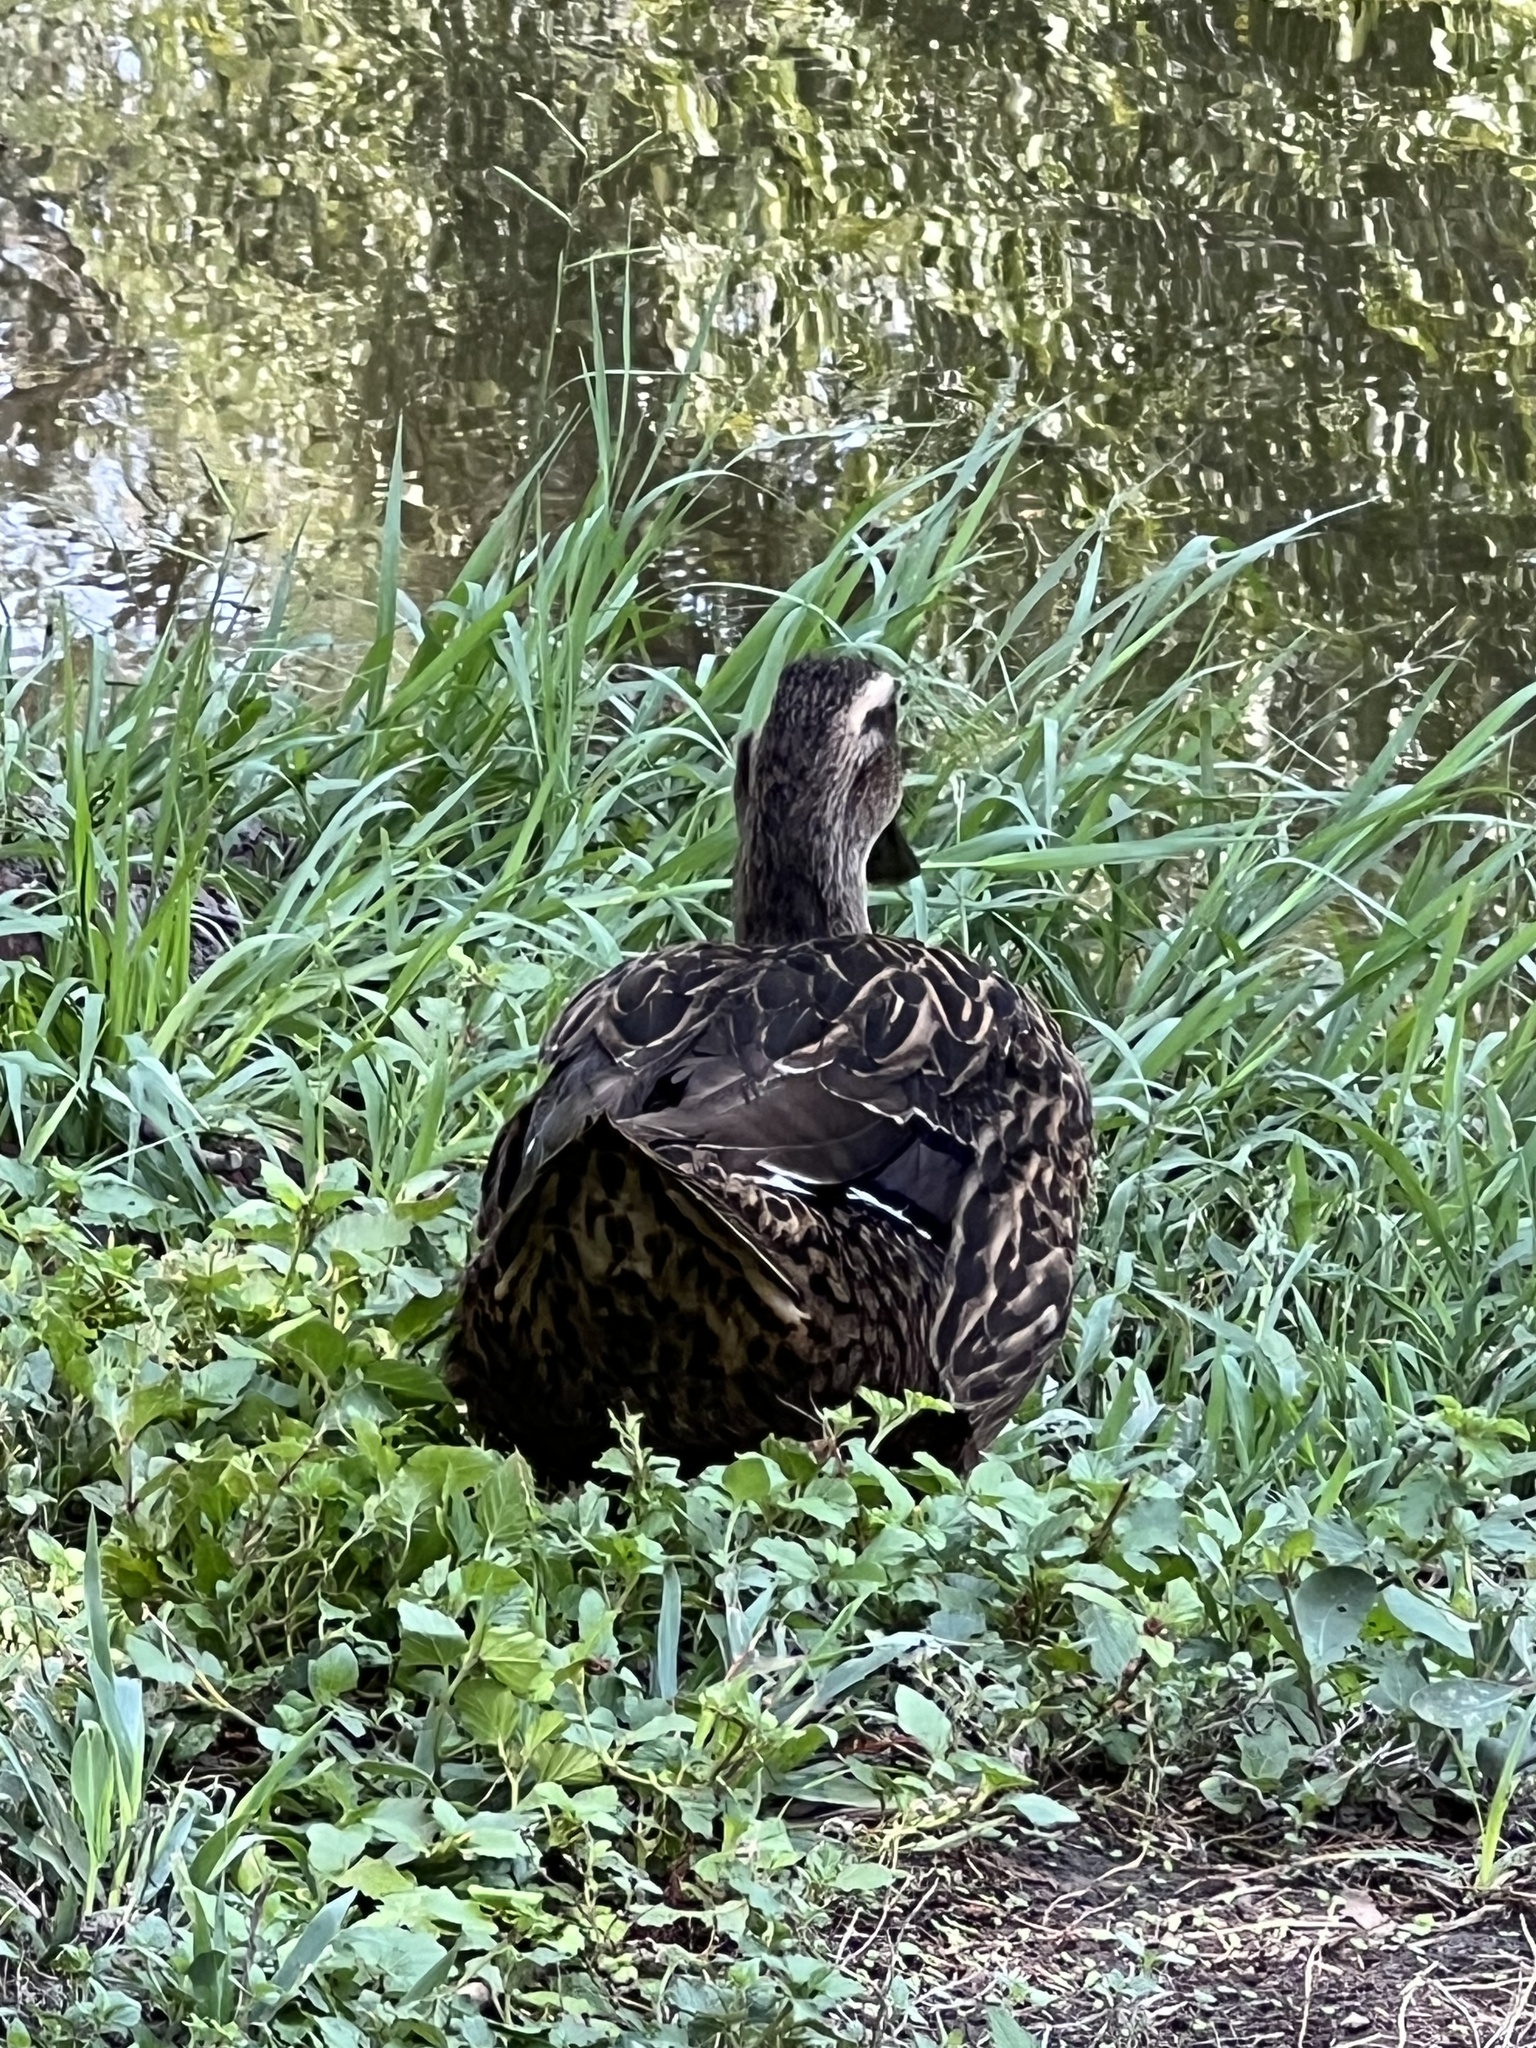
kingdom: Animalia
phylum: Chordata
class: Aves
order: Anseriformes
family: Anatidae
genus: Anas
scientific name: Anas platyrhynchos
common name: Mallard
